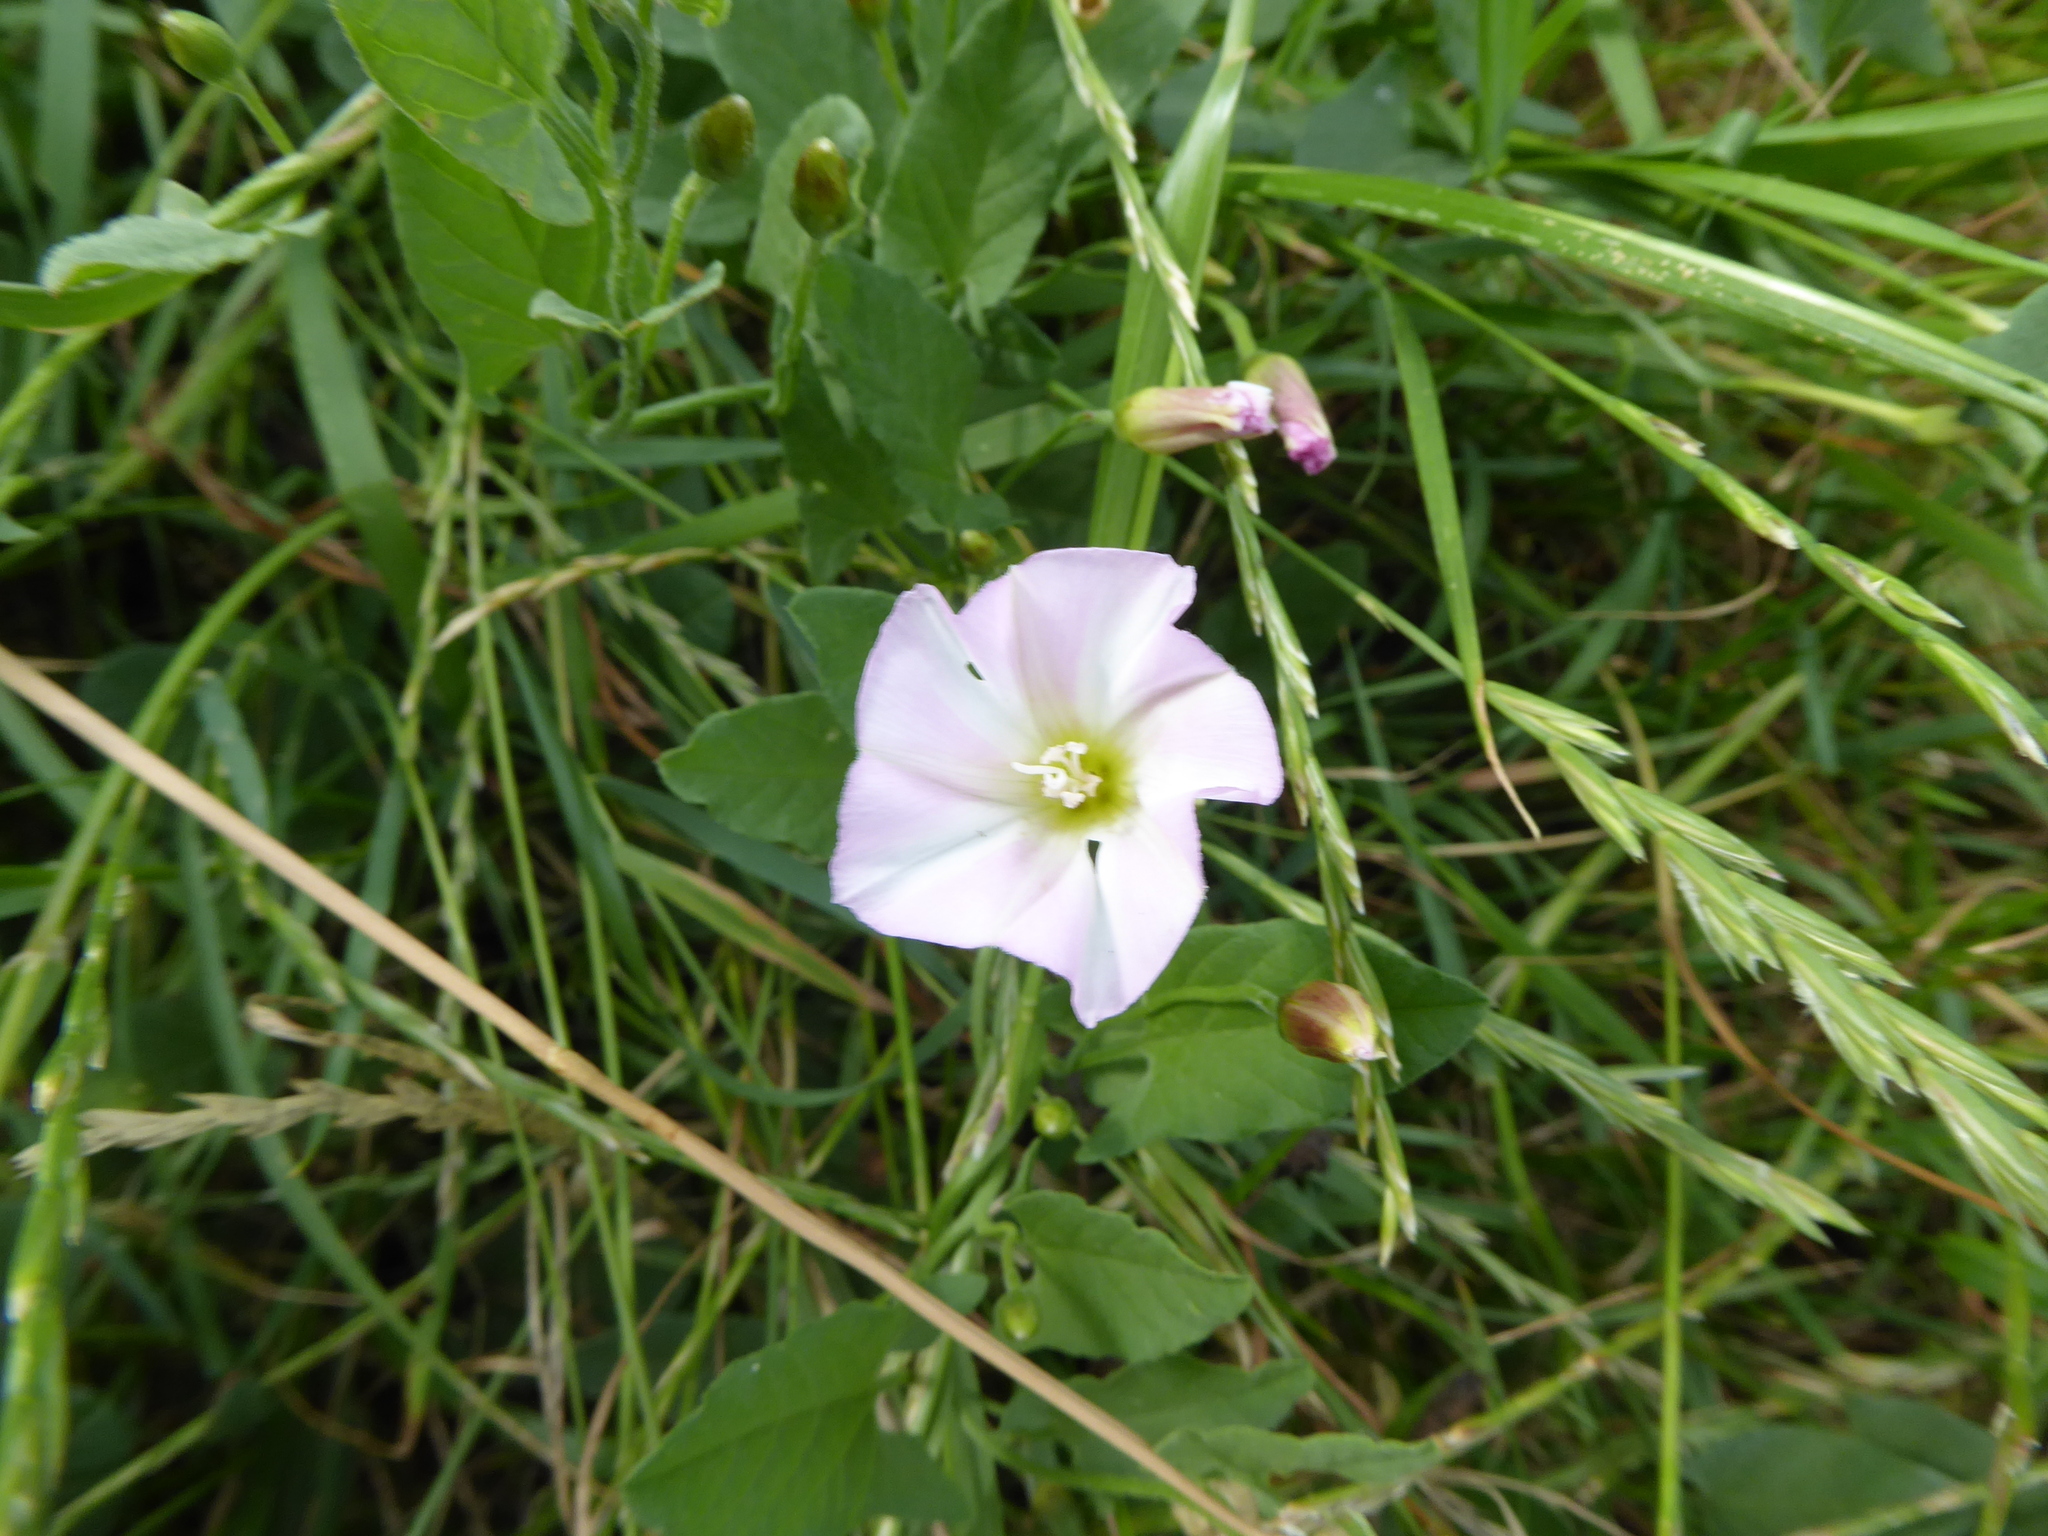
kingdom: Plantae
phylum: Tracheophyta
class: Magnoliopsida
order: Solanales
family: Convolvulaceae
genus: Convolvulus
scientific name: Convolvulus arvensis
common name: Field bindweed
